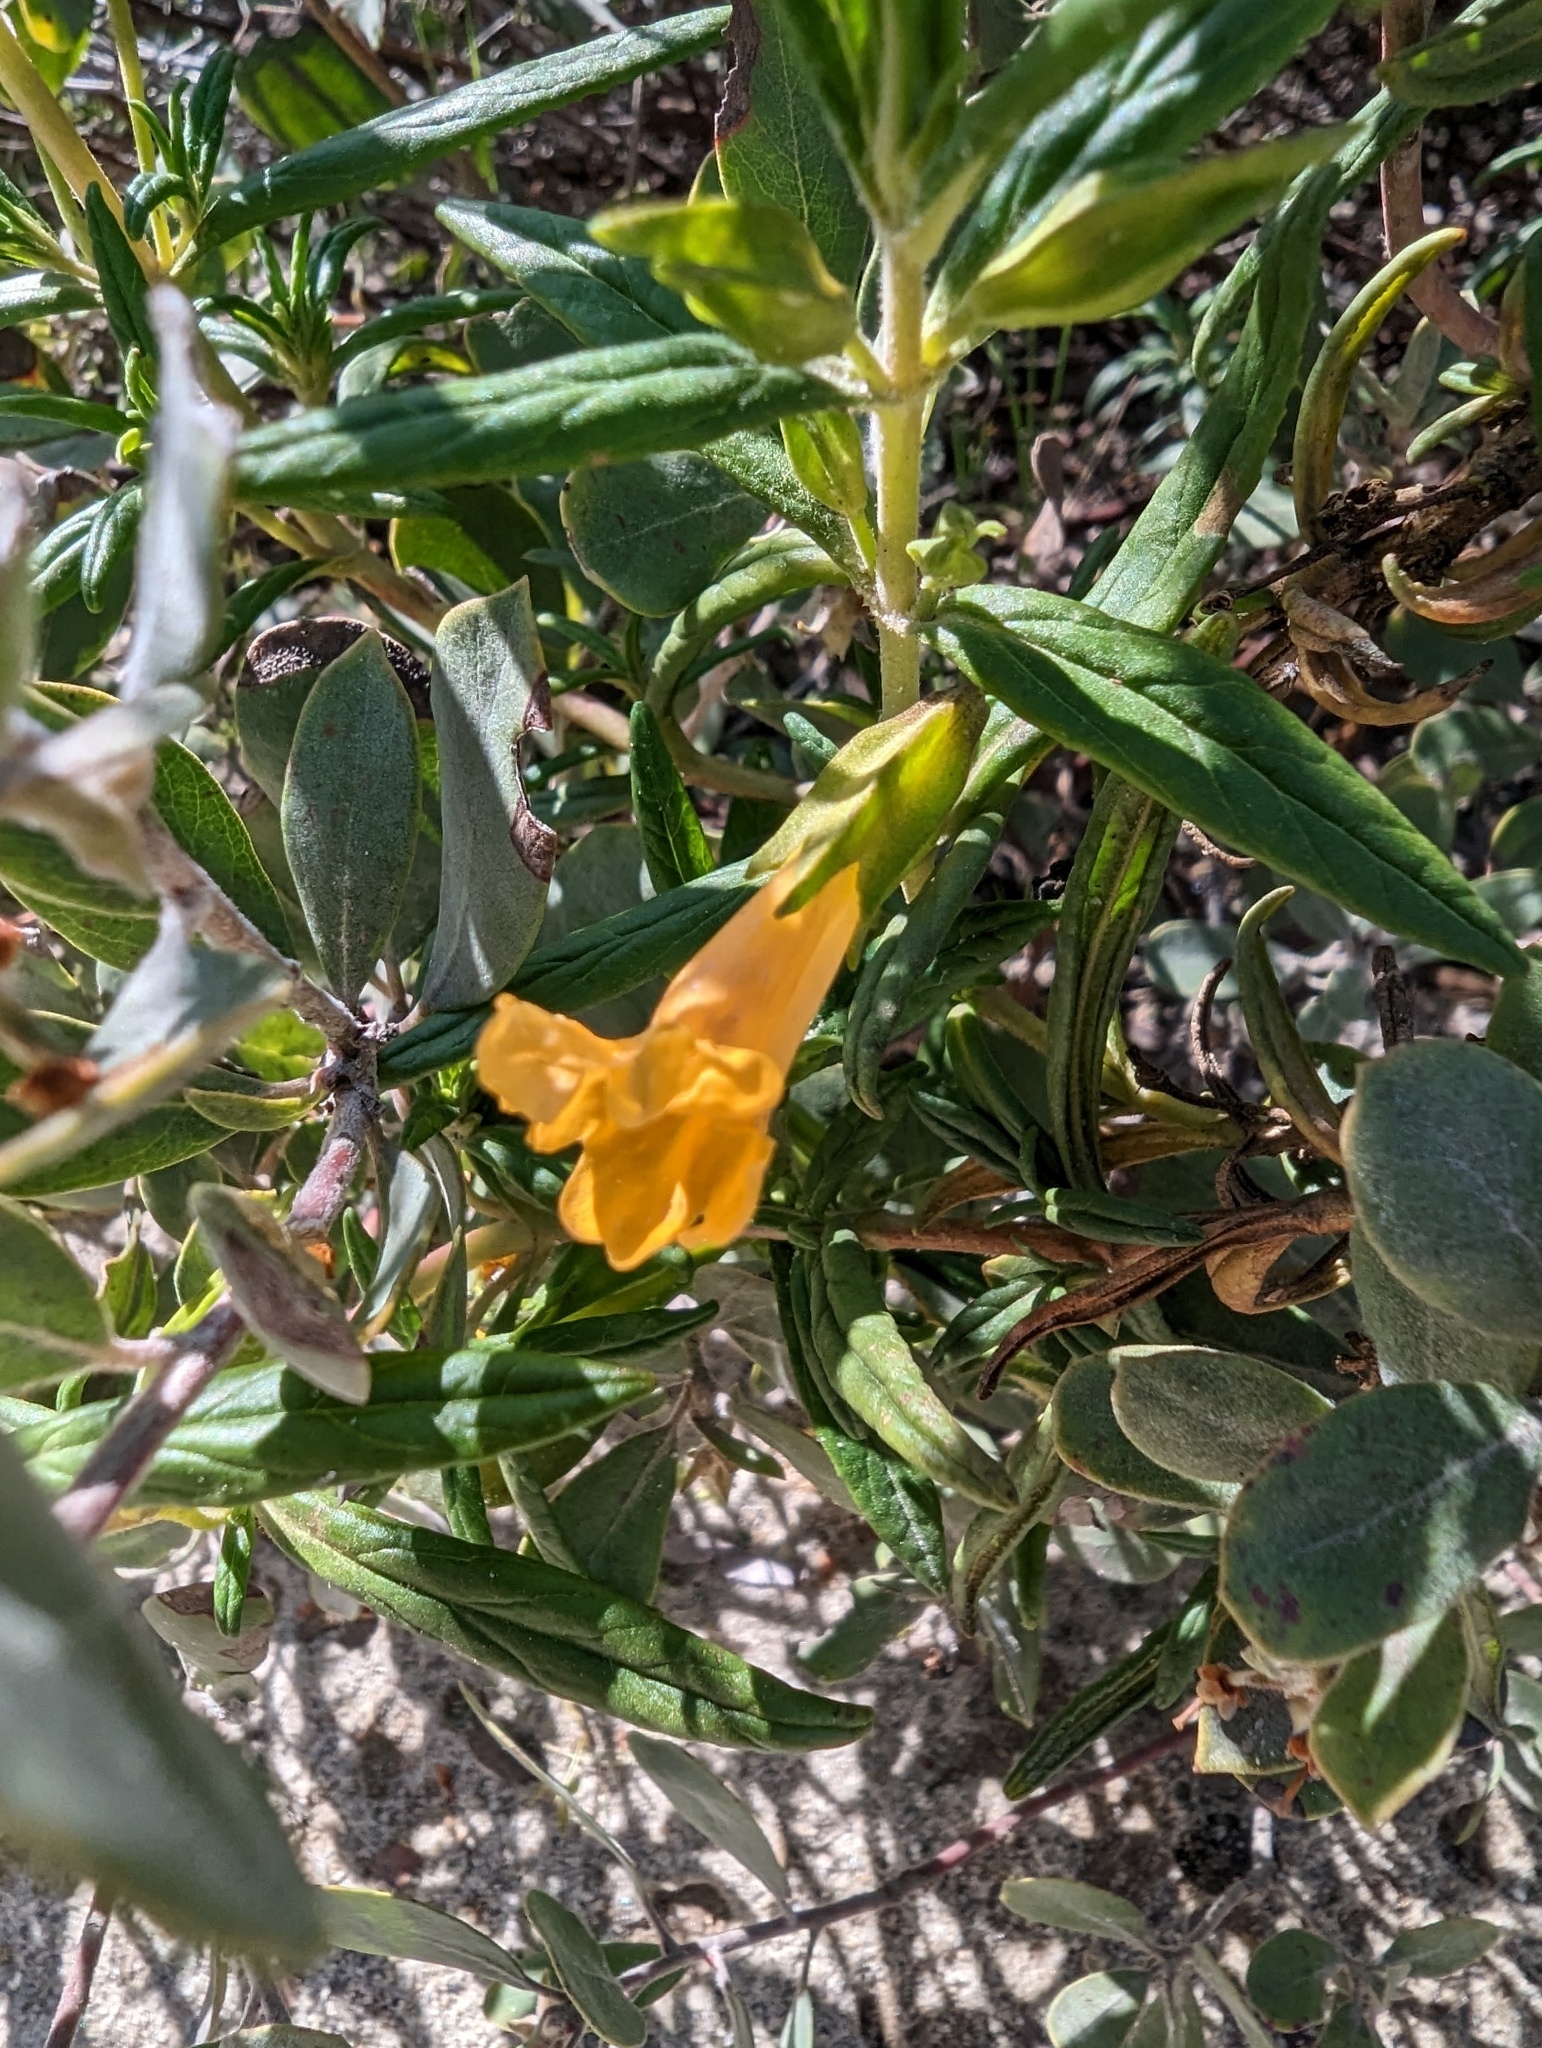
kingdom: Plantae
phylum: Tracheophyta
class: Magnoliopsida
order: Lamiales
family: Phrymaceae
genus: Diplacus
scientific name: Diplacus aurantiacus
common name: Bush monkey-flower
